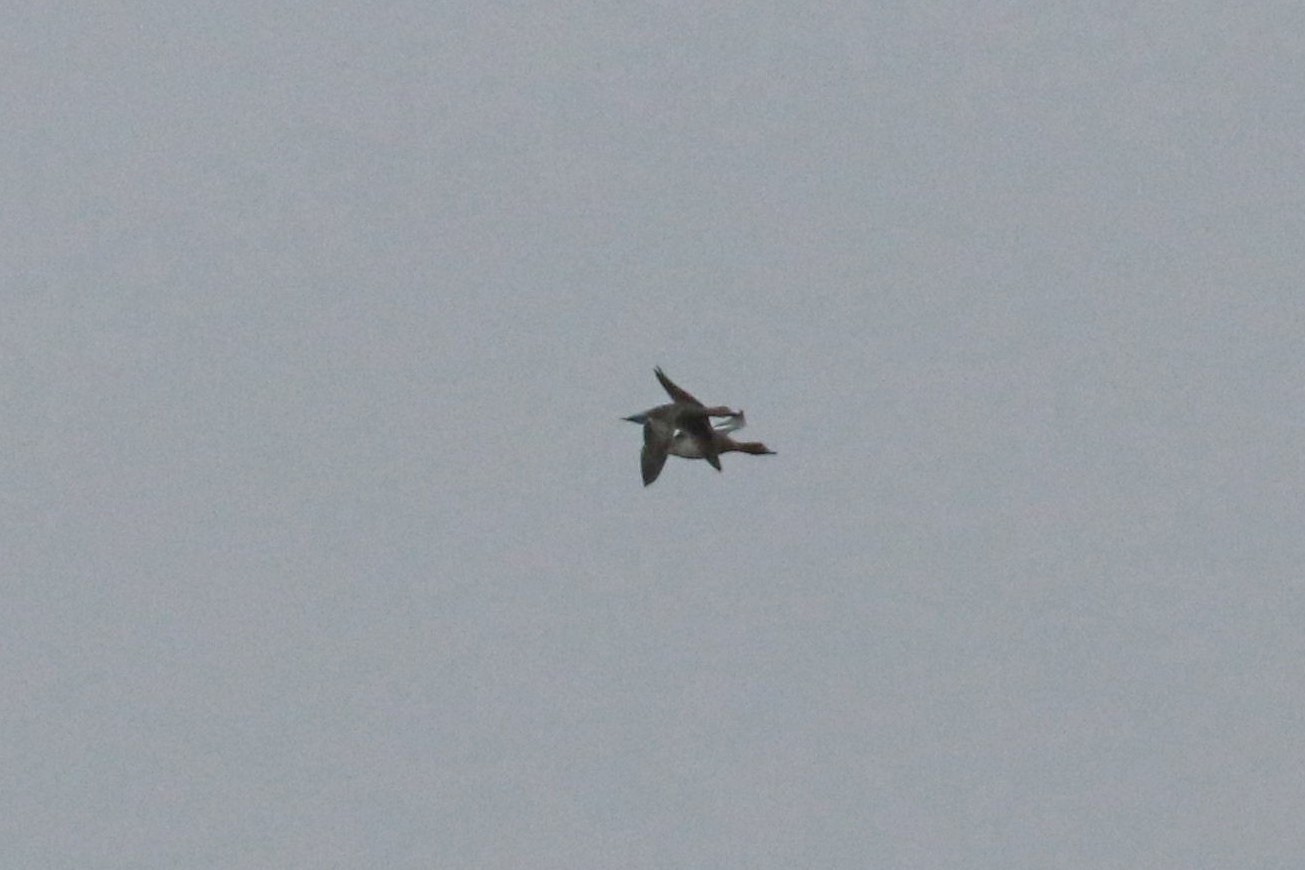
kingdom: Animalia
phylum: Chordata
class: Aves
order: Anseriformes
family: Anatidae
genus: Mareca
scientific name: Mareca penelope
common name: Eurasian wigeon
